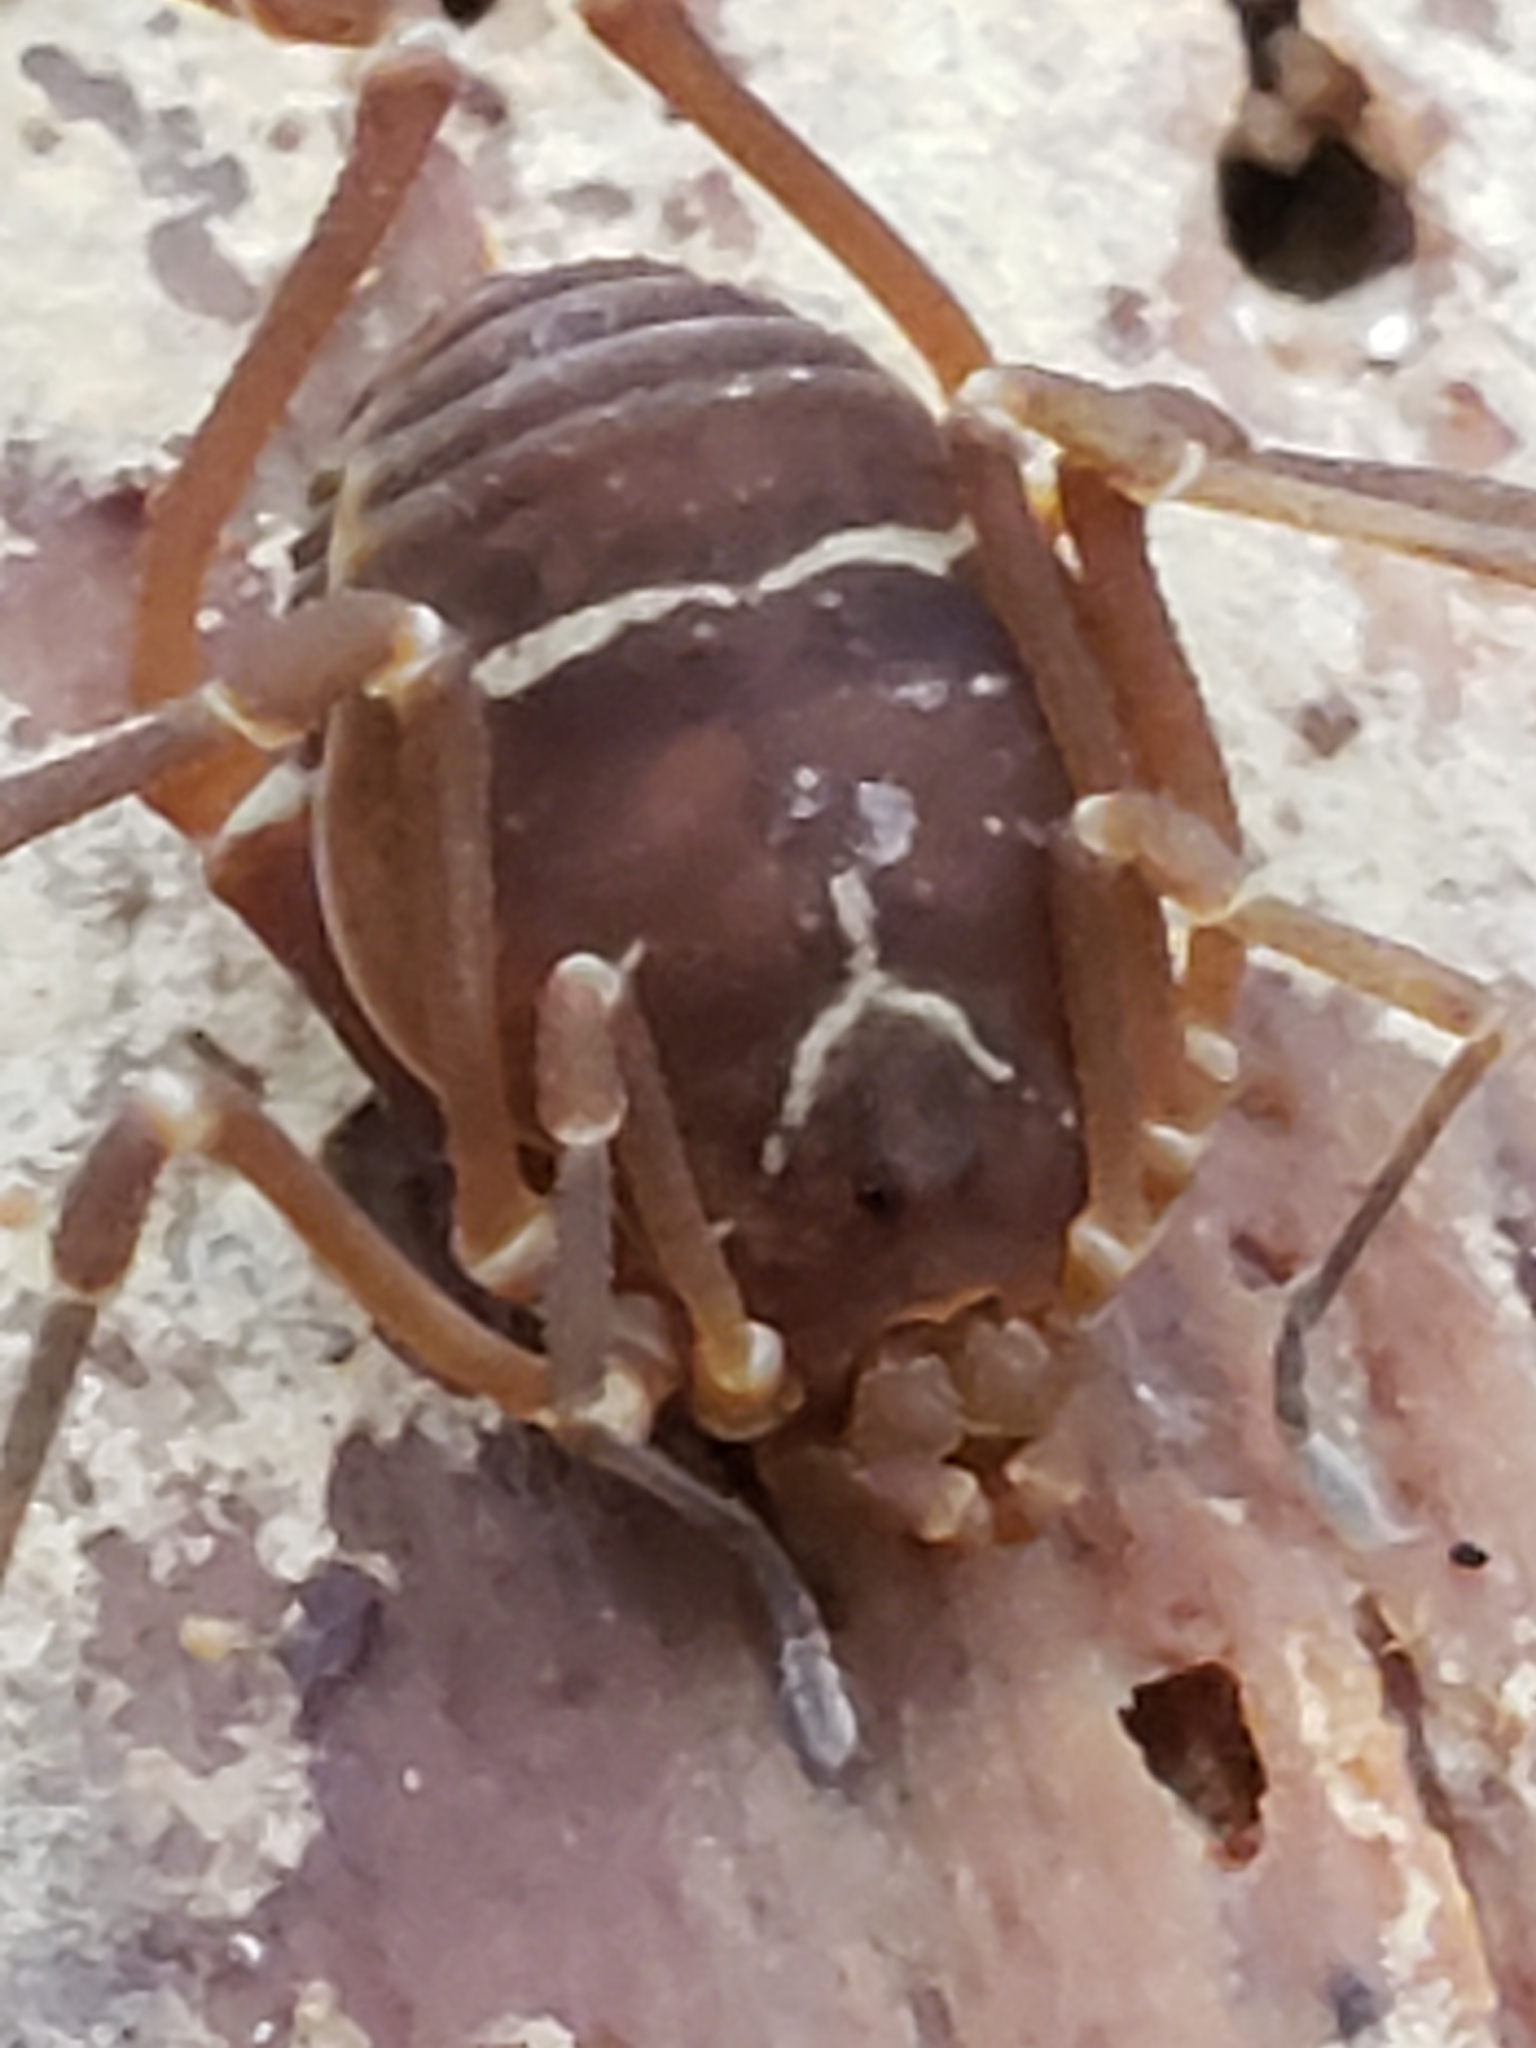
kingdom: Animalia
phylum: Arthropoda
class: Arachnida
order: Opiliones
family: Cosmetidae
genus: Libitioides
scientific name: Libitioides sayi
